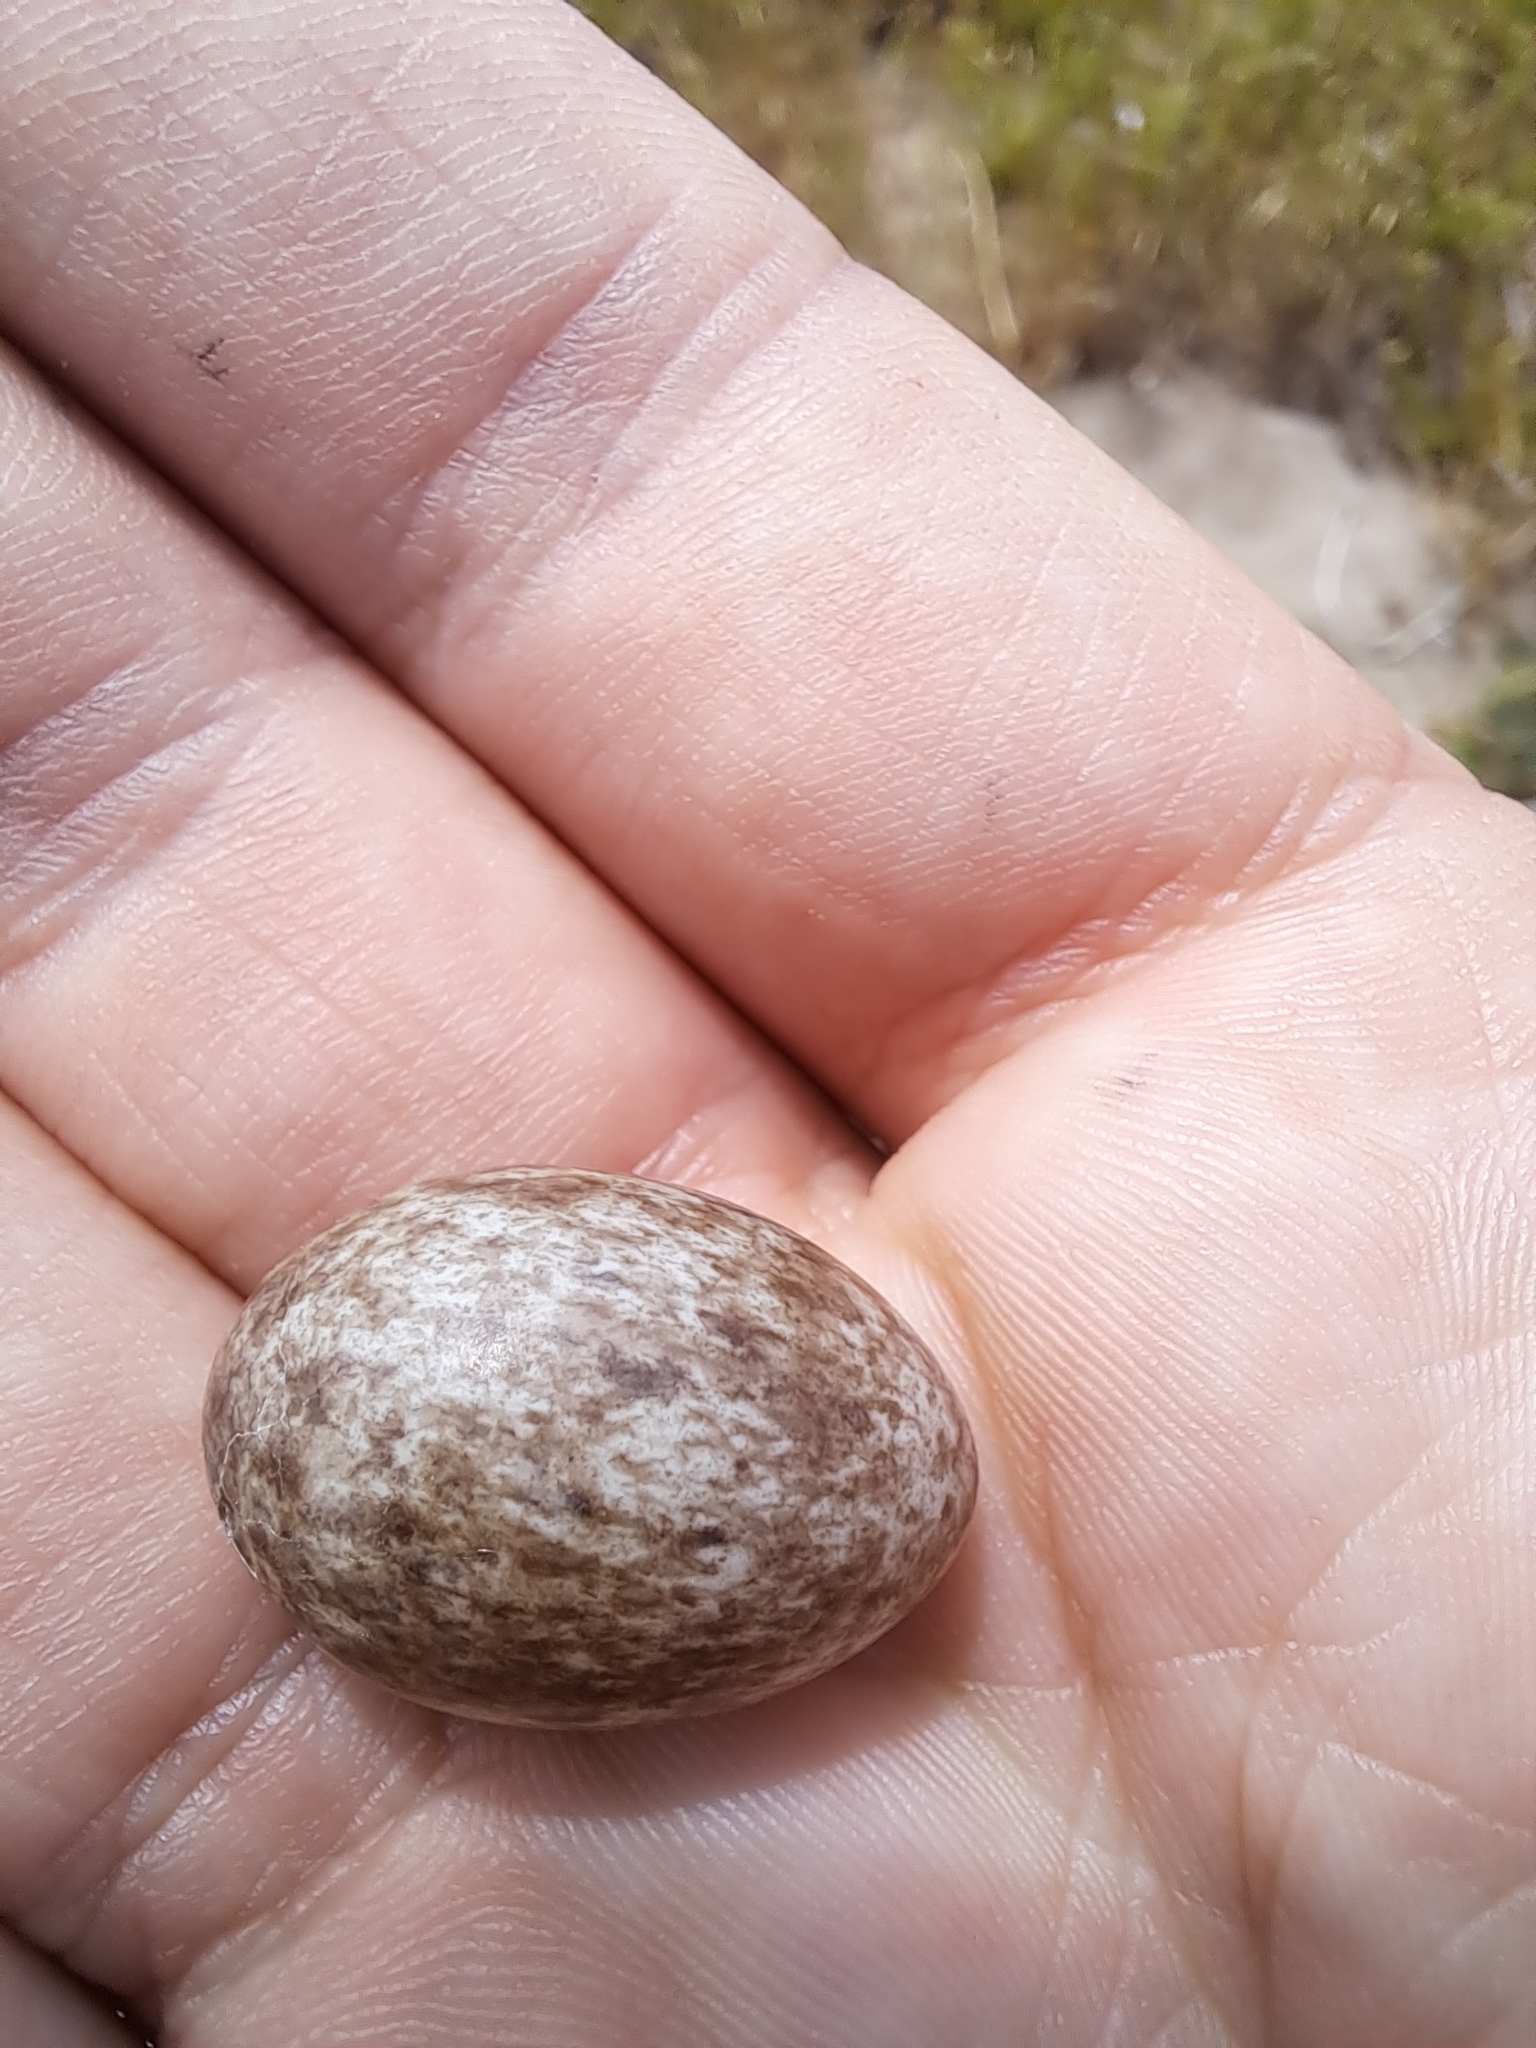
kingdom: Animalia
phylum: Chordata
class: Aves
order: Charadriiformes
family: Burhinidae
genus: Burhinus
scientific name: Burhinus capensis
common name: Spotted thick-knee
